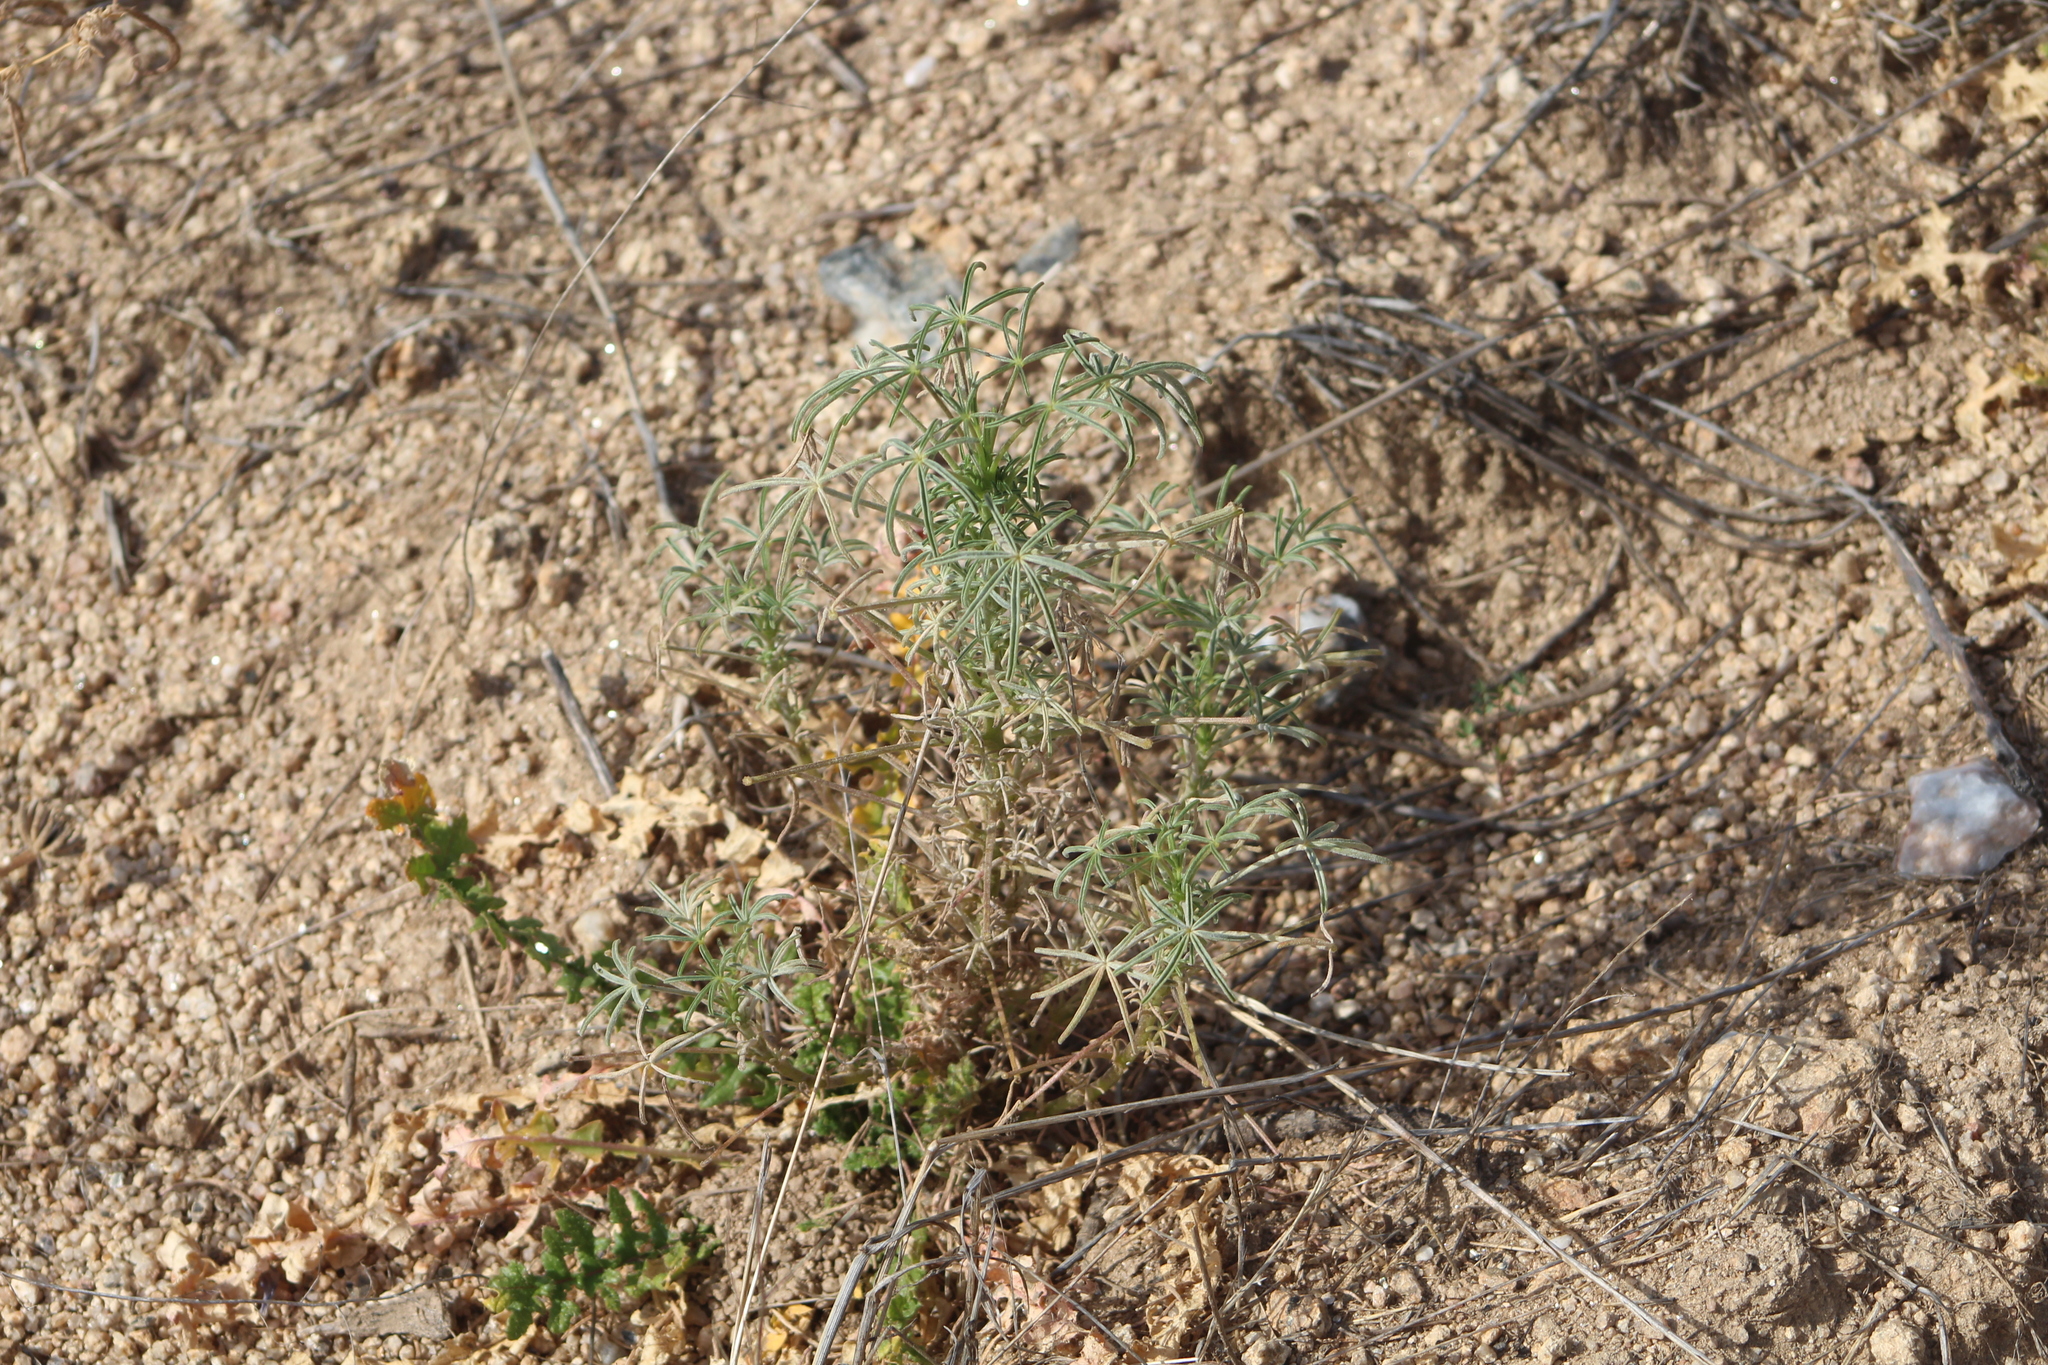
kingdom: Plantae
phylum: Tracheophyta
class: Magnoliopsida
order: Fabales
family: Fabaceae
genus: Lupinus
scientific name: Lupinus angustifolius
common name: Narrow-leaved lupin
